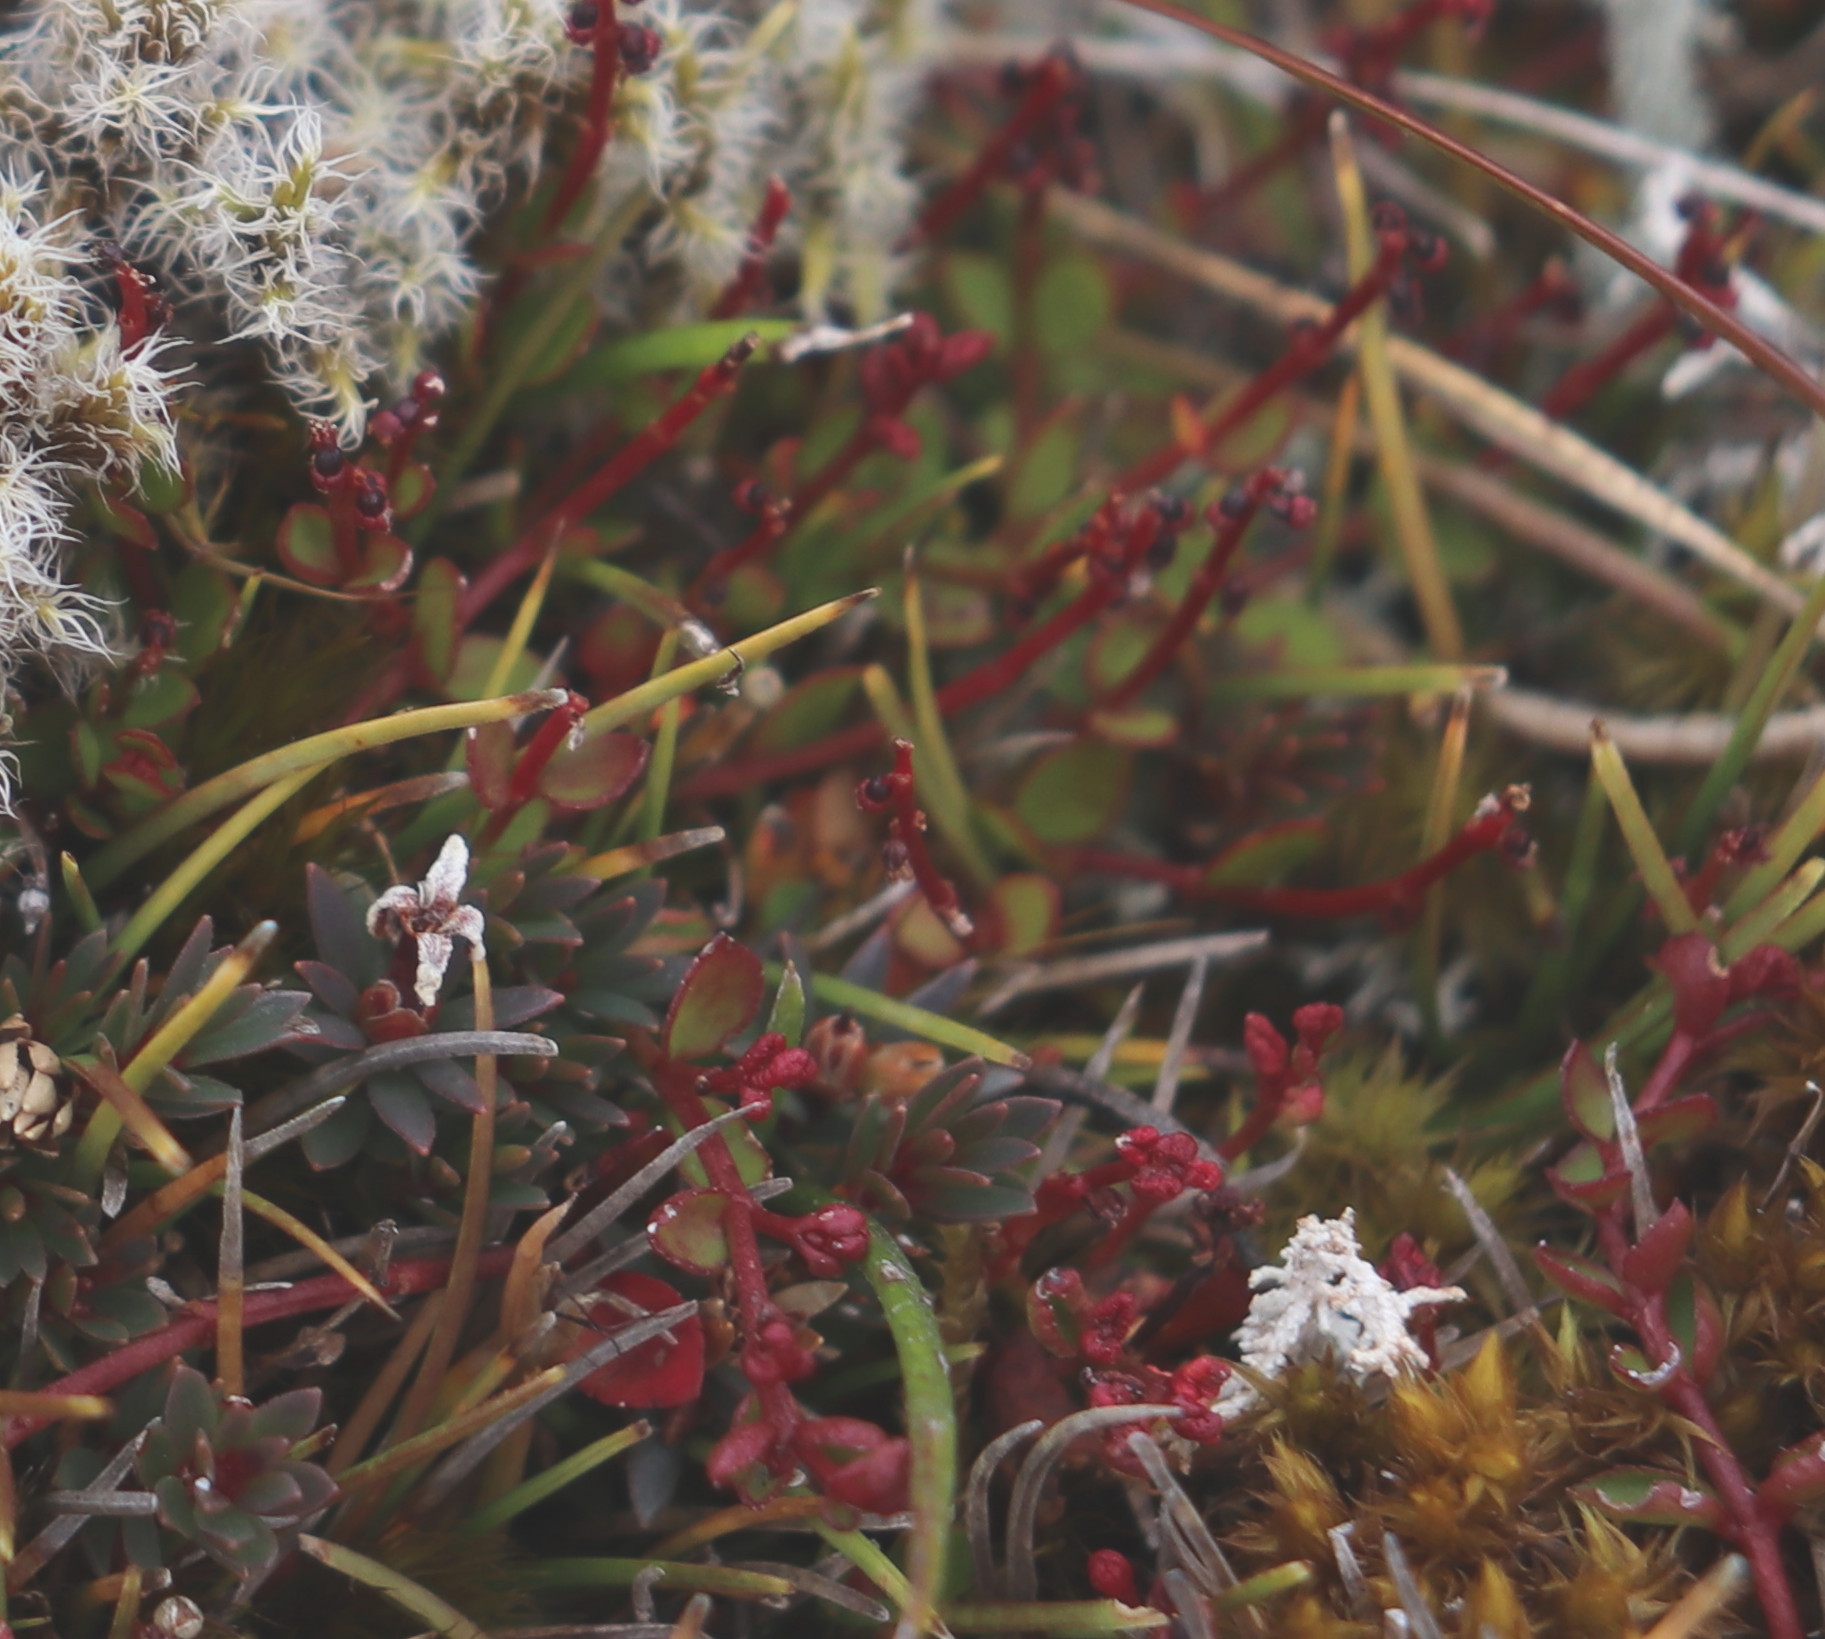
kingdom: Plantae
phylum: Tracheophyta
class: Magnoliopsida
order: Saxifragales
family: Haloragaceae
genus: Gonocarpus
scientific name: Gonocarpus micranthus
